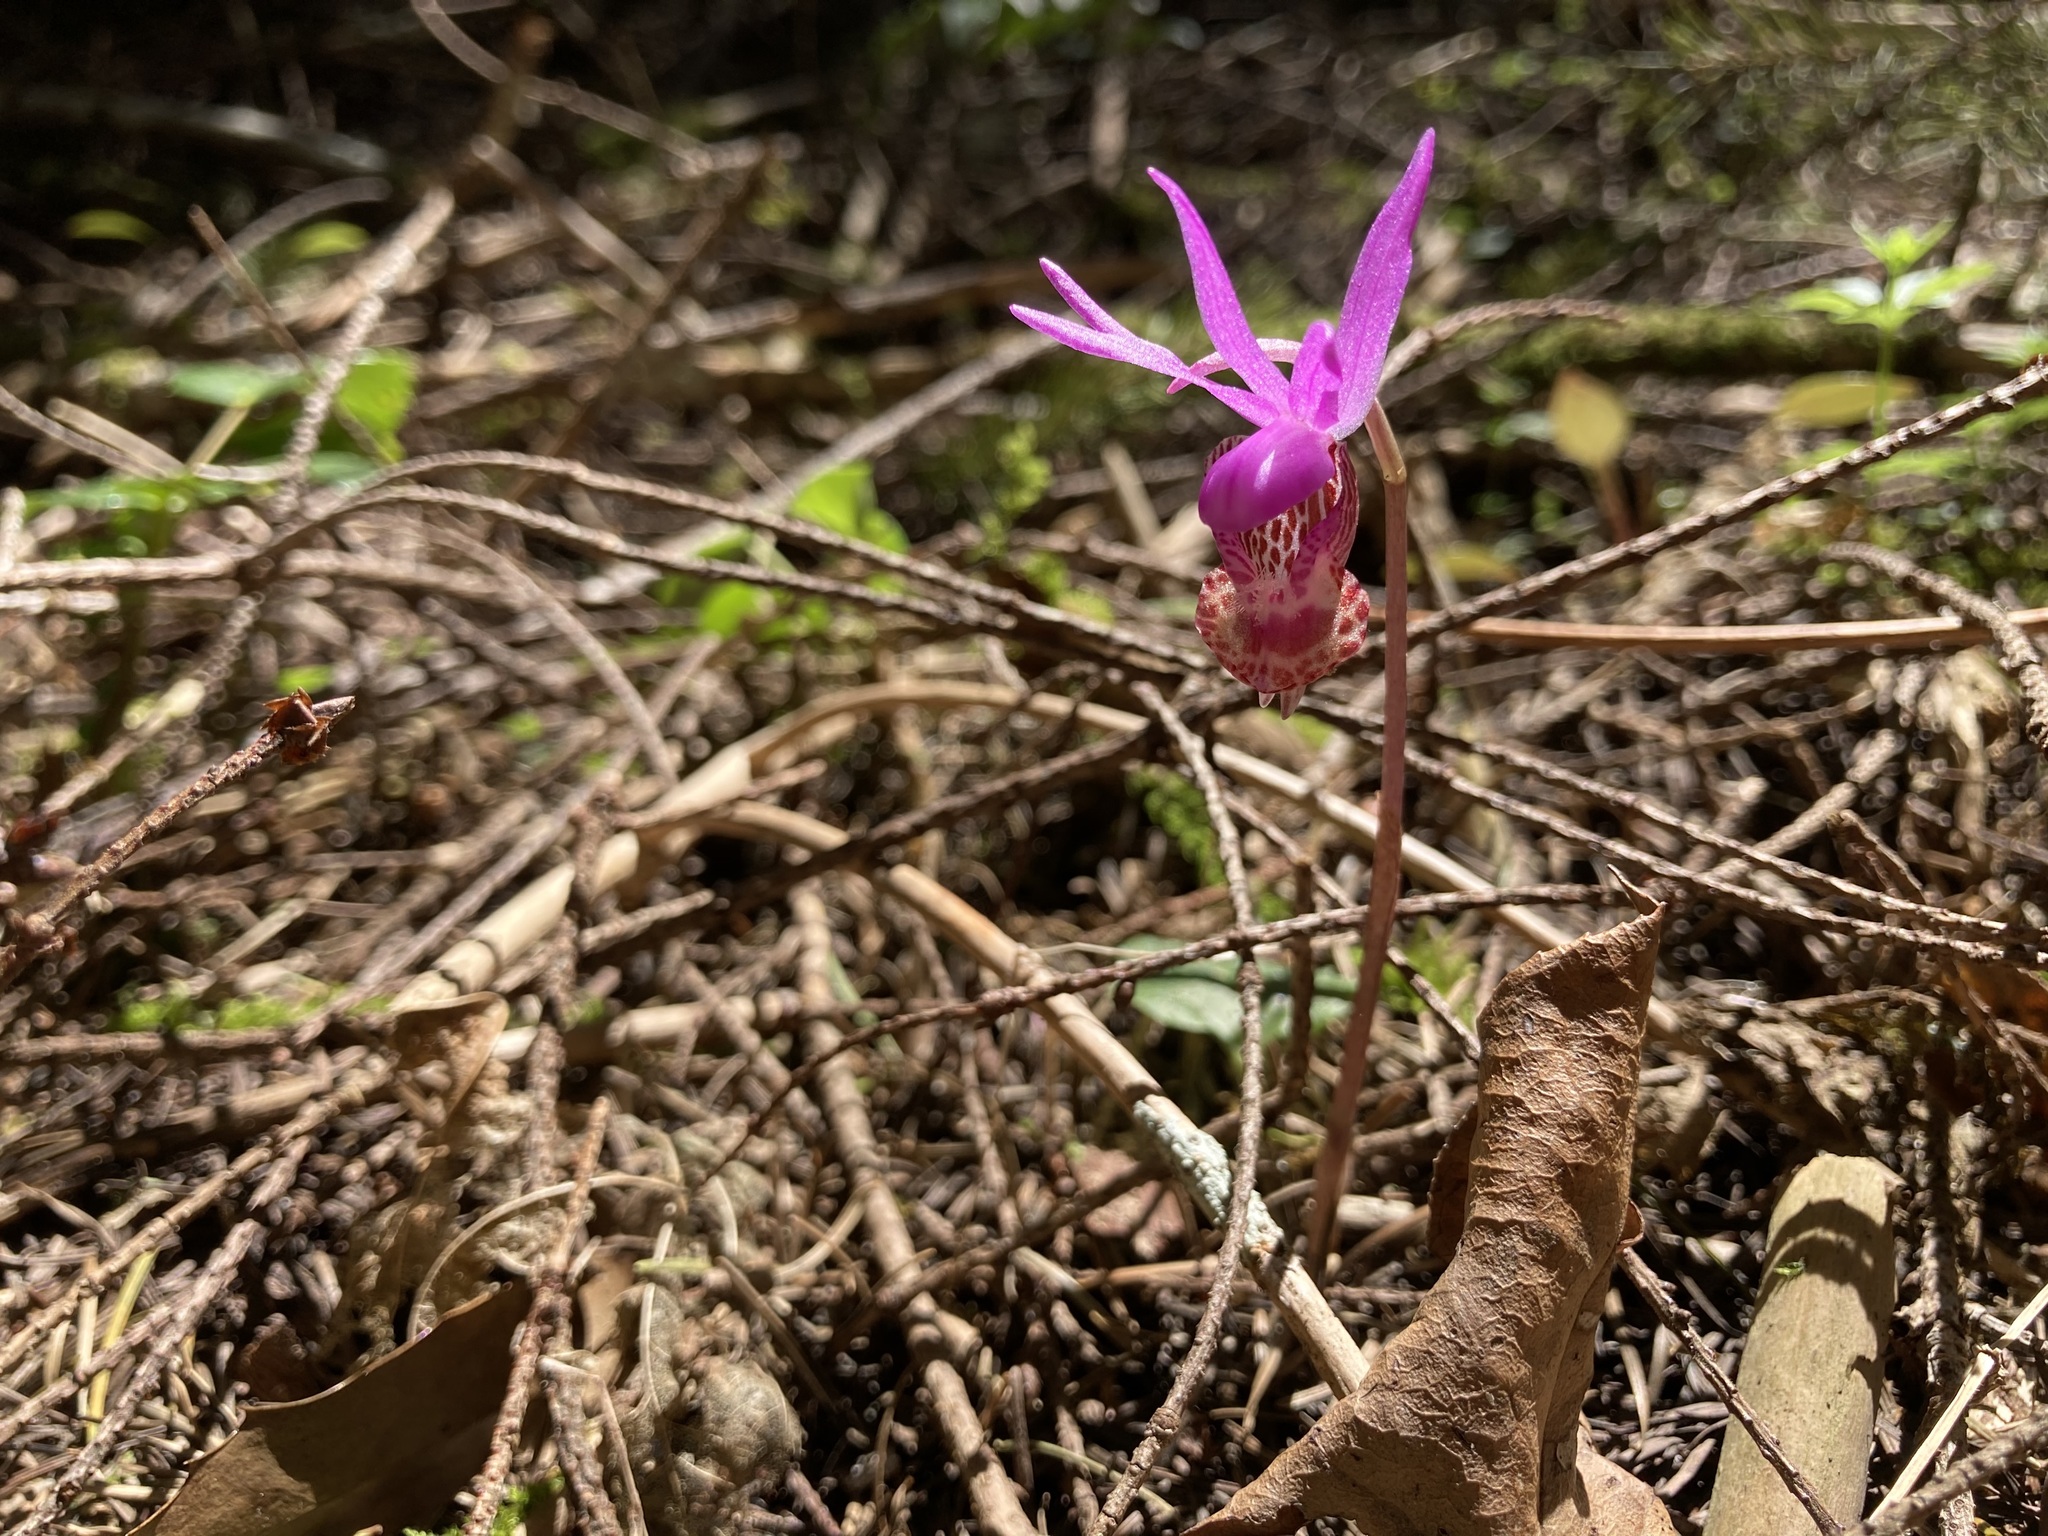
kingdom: Plantae
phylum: Tracheophyta
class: Liliopsida
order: Asparagales
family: Orchidaceae
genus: Calypso
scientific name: Calypso bulbosa
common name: Calypso
